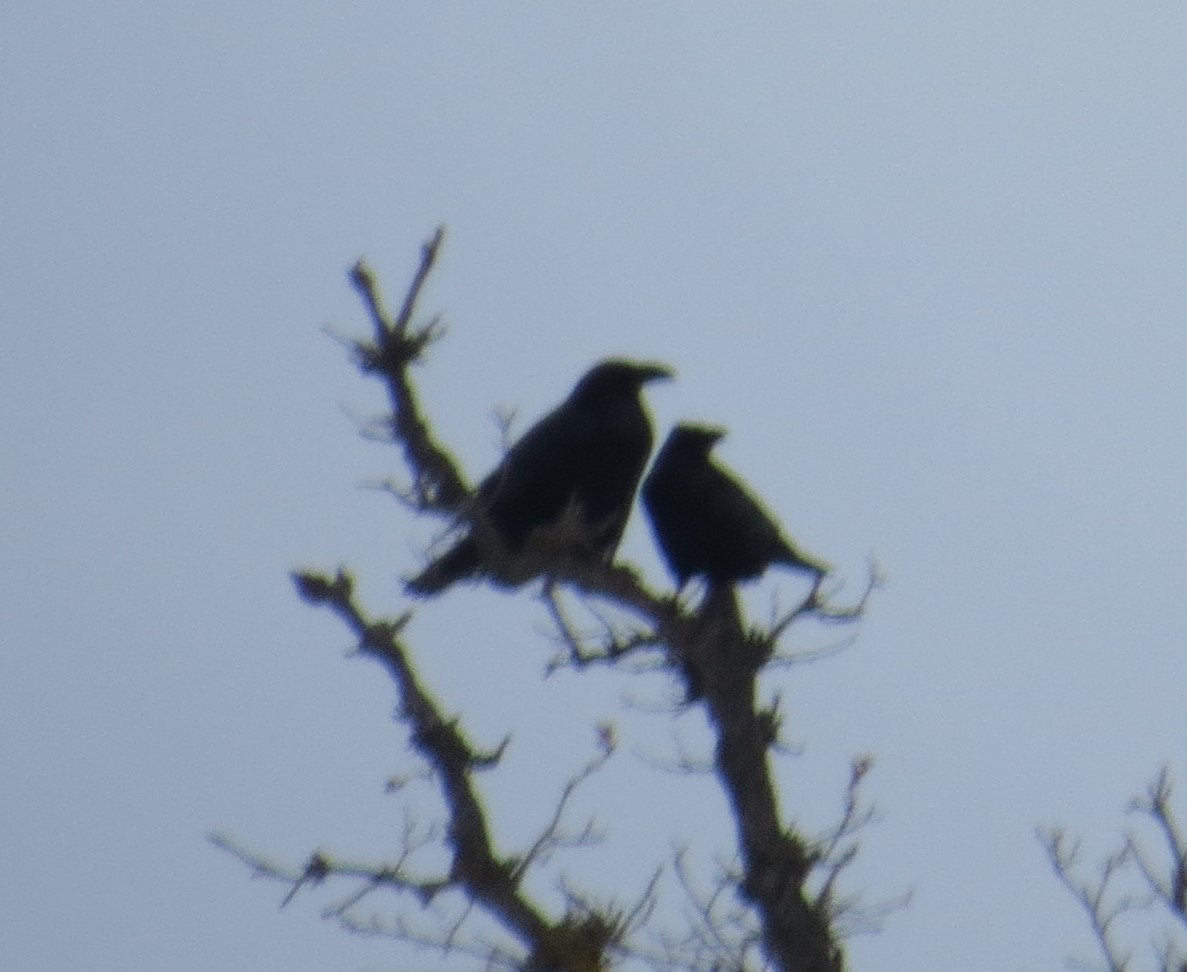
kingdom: Animalia
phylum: Chordata
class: Aves
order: Passeriformes
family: Corvidae
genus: Corvus
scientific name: Corvus corax
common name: Common raven
